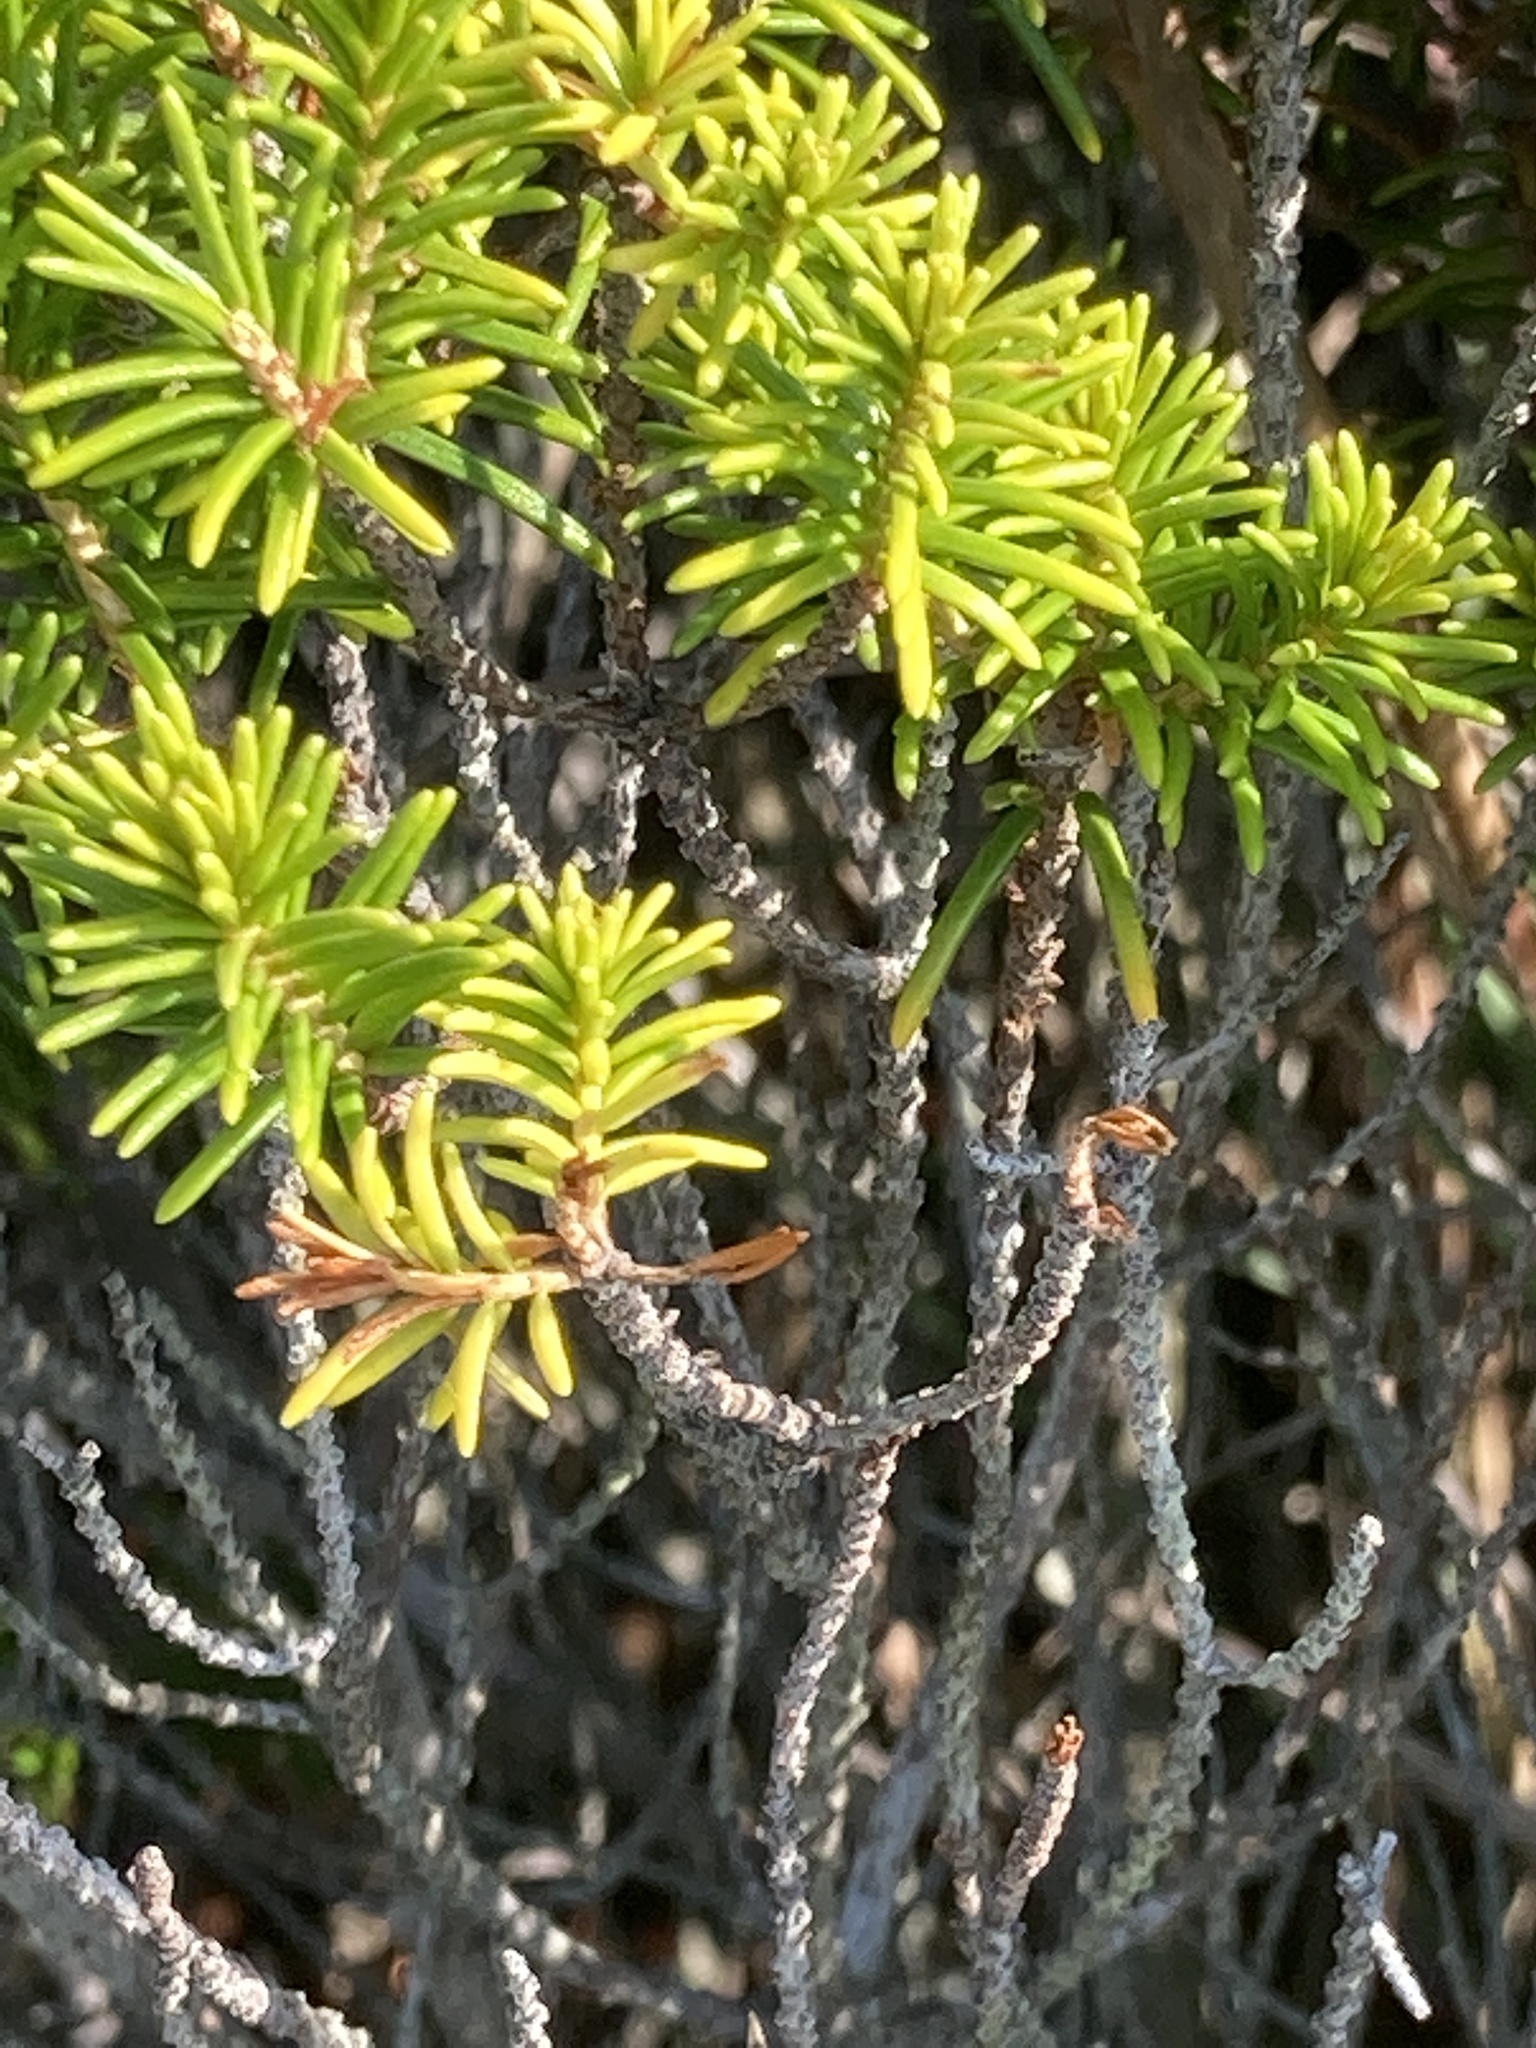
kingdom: Plantae
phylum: Tracheophyta
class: Magnoliopsida
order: Ericales
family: Ericaceae
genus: Ceratiola
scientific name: Ceratiola ericoides
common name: Sandhill-rosemary
